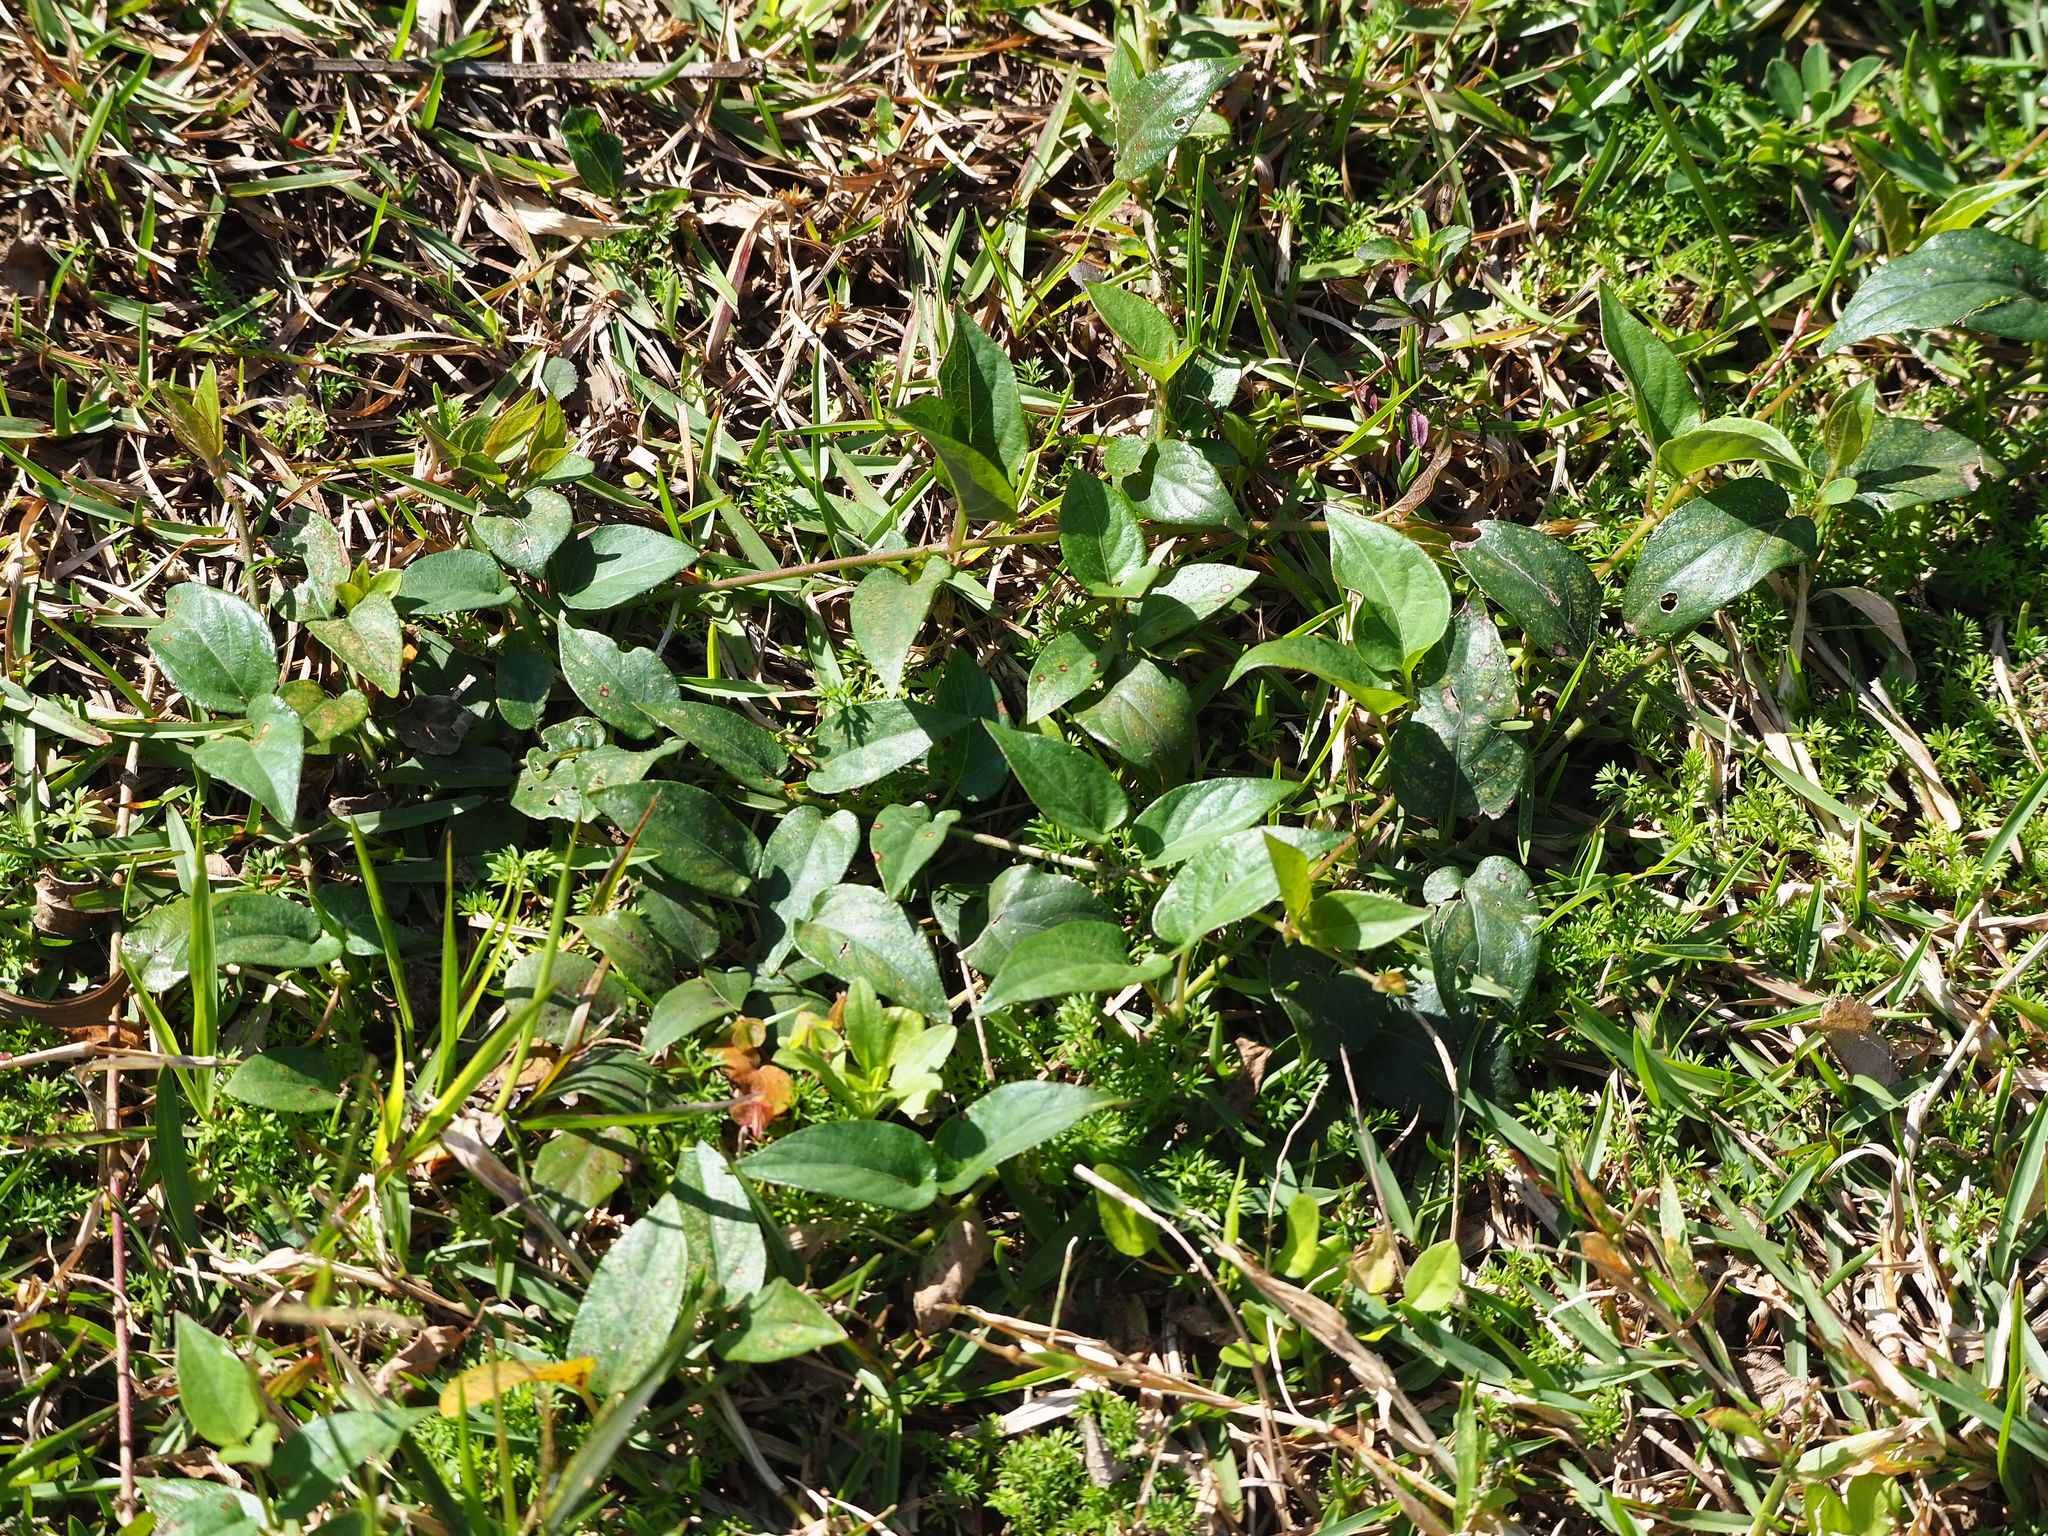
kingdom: Plantae
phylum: Tracheophyta
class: Magnoliopsida
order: Gentianales
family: Rubiaceae
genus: Paederia
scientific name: Paederia foetida
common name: Stinkvine
